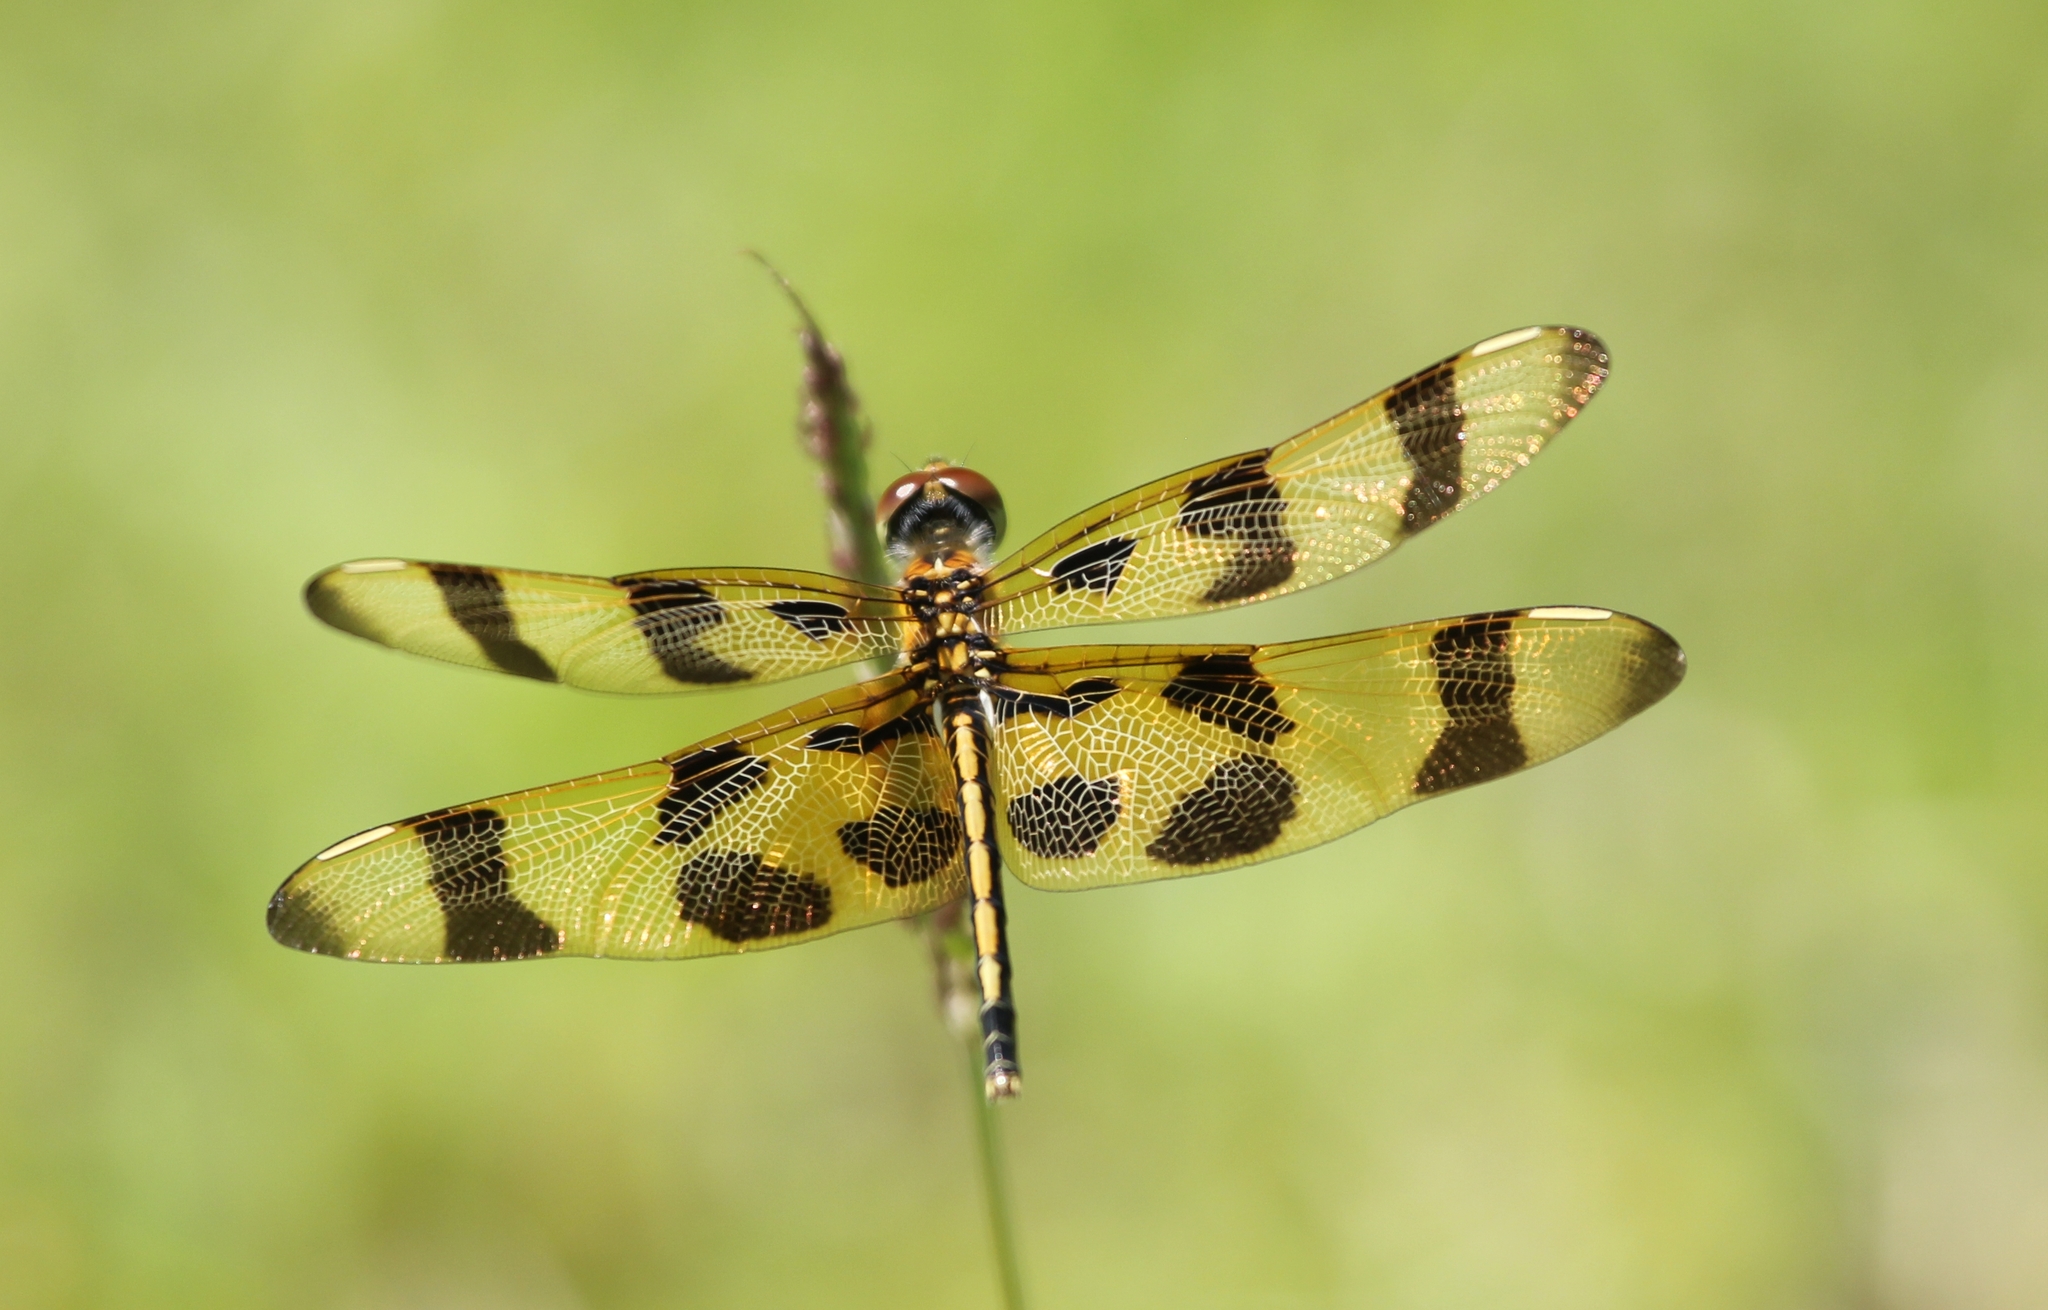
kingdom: Animalia
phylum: Arthropoda
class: Insecta
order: Odonata
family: Libellulidae
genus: Celithemis
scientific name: Celithemis eponina
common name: Halloween pennant
